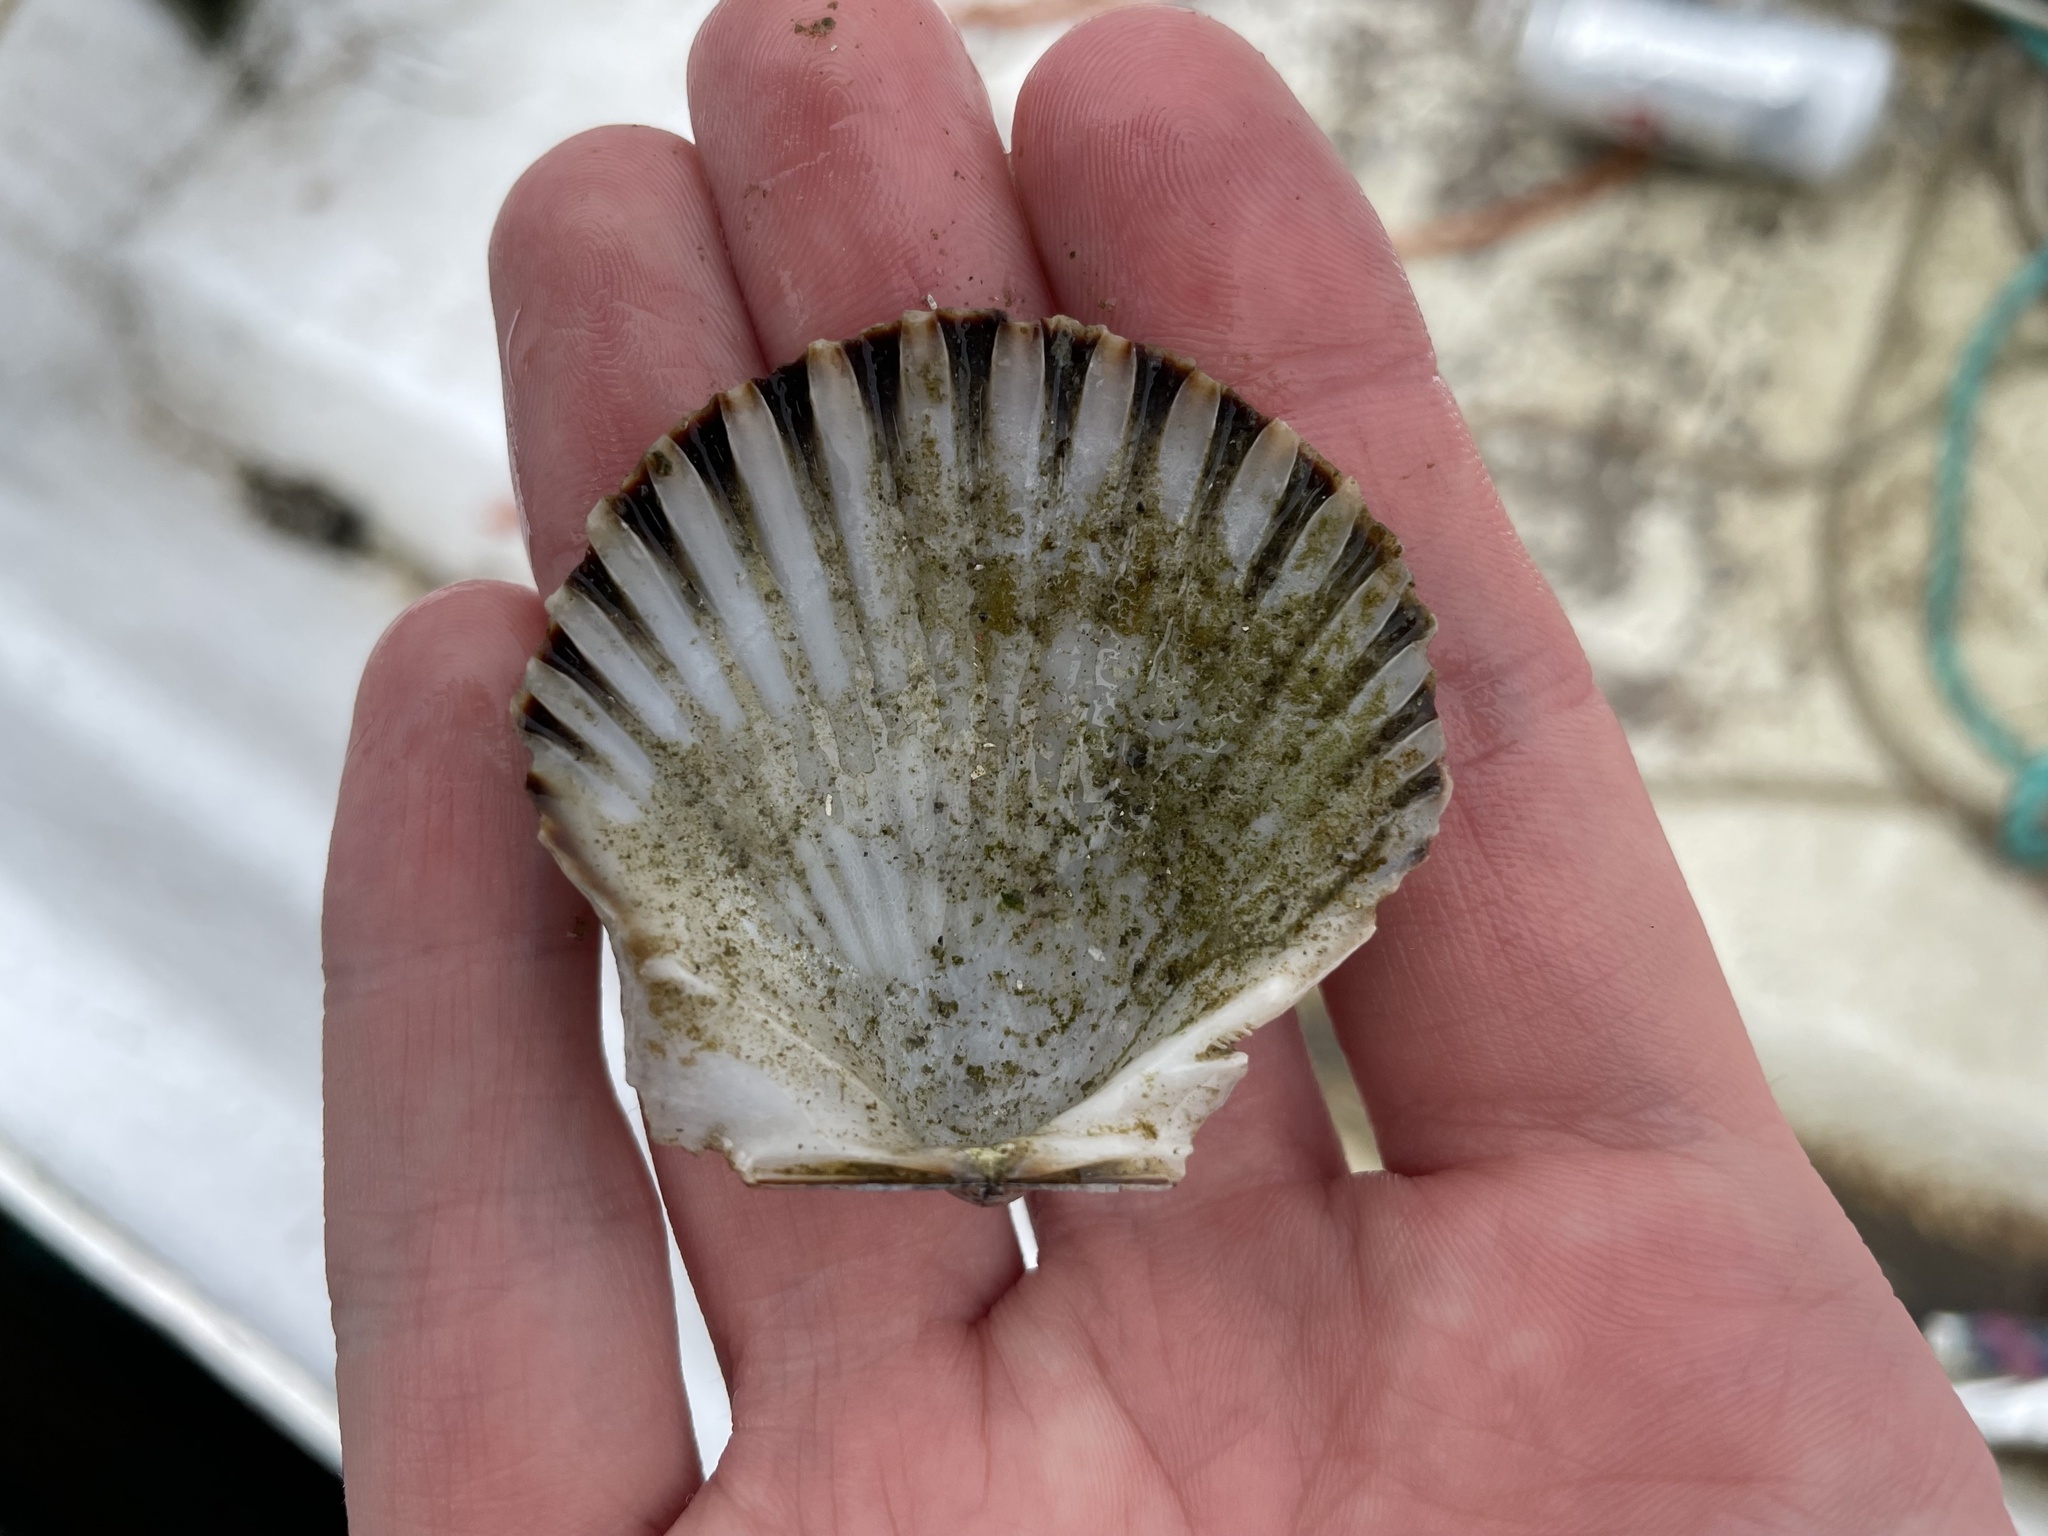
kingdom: Animalia
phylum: Mollusca
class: Bivalvia
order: Pectinida
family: Pectinidae
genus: Argopecten
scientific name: Argopecten irradians
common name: Atlantic bay scallop
